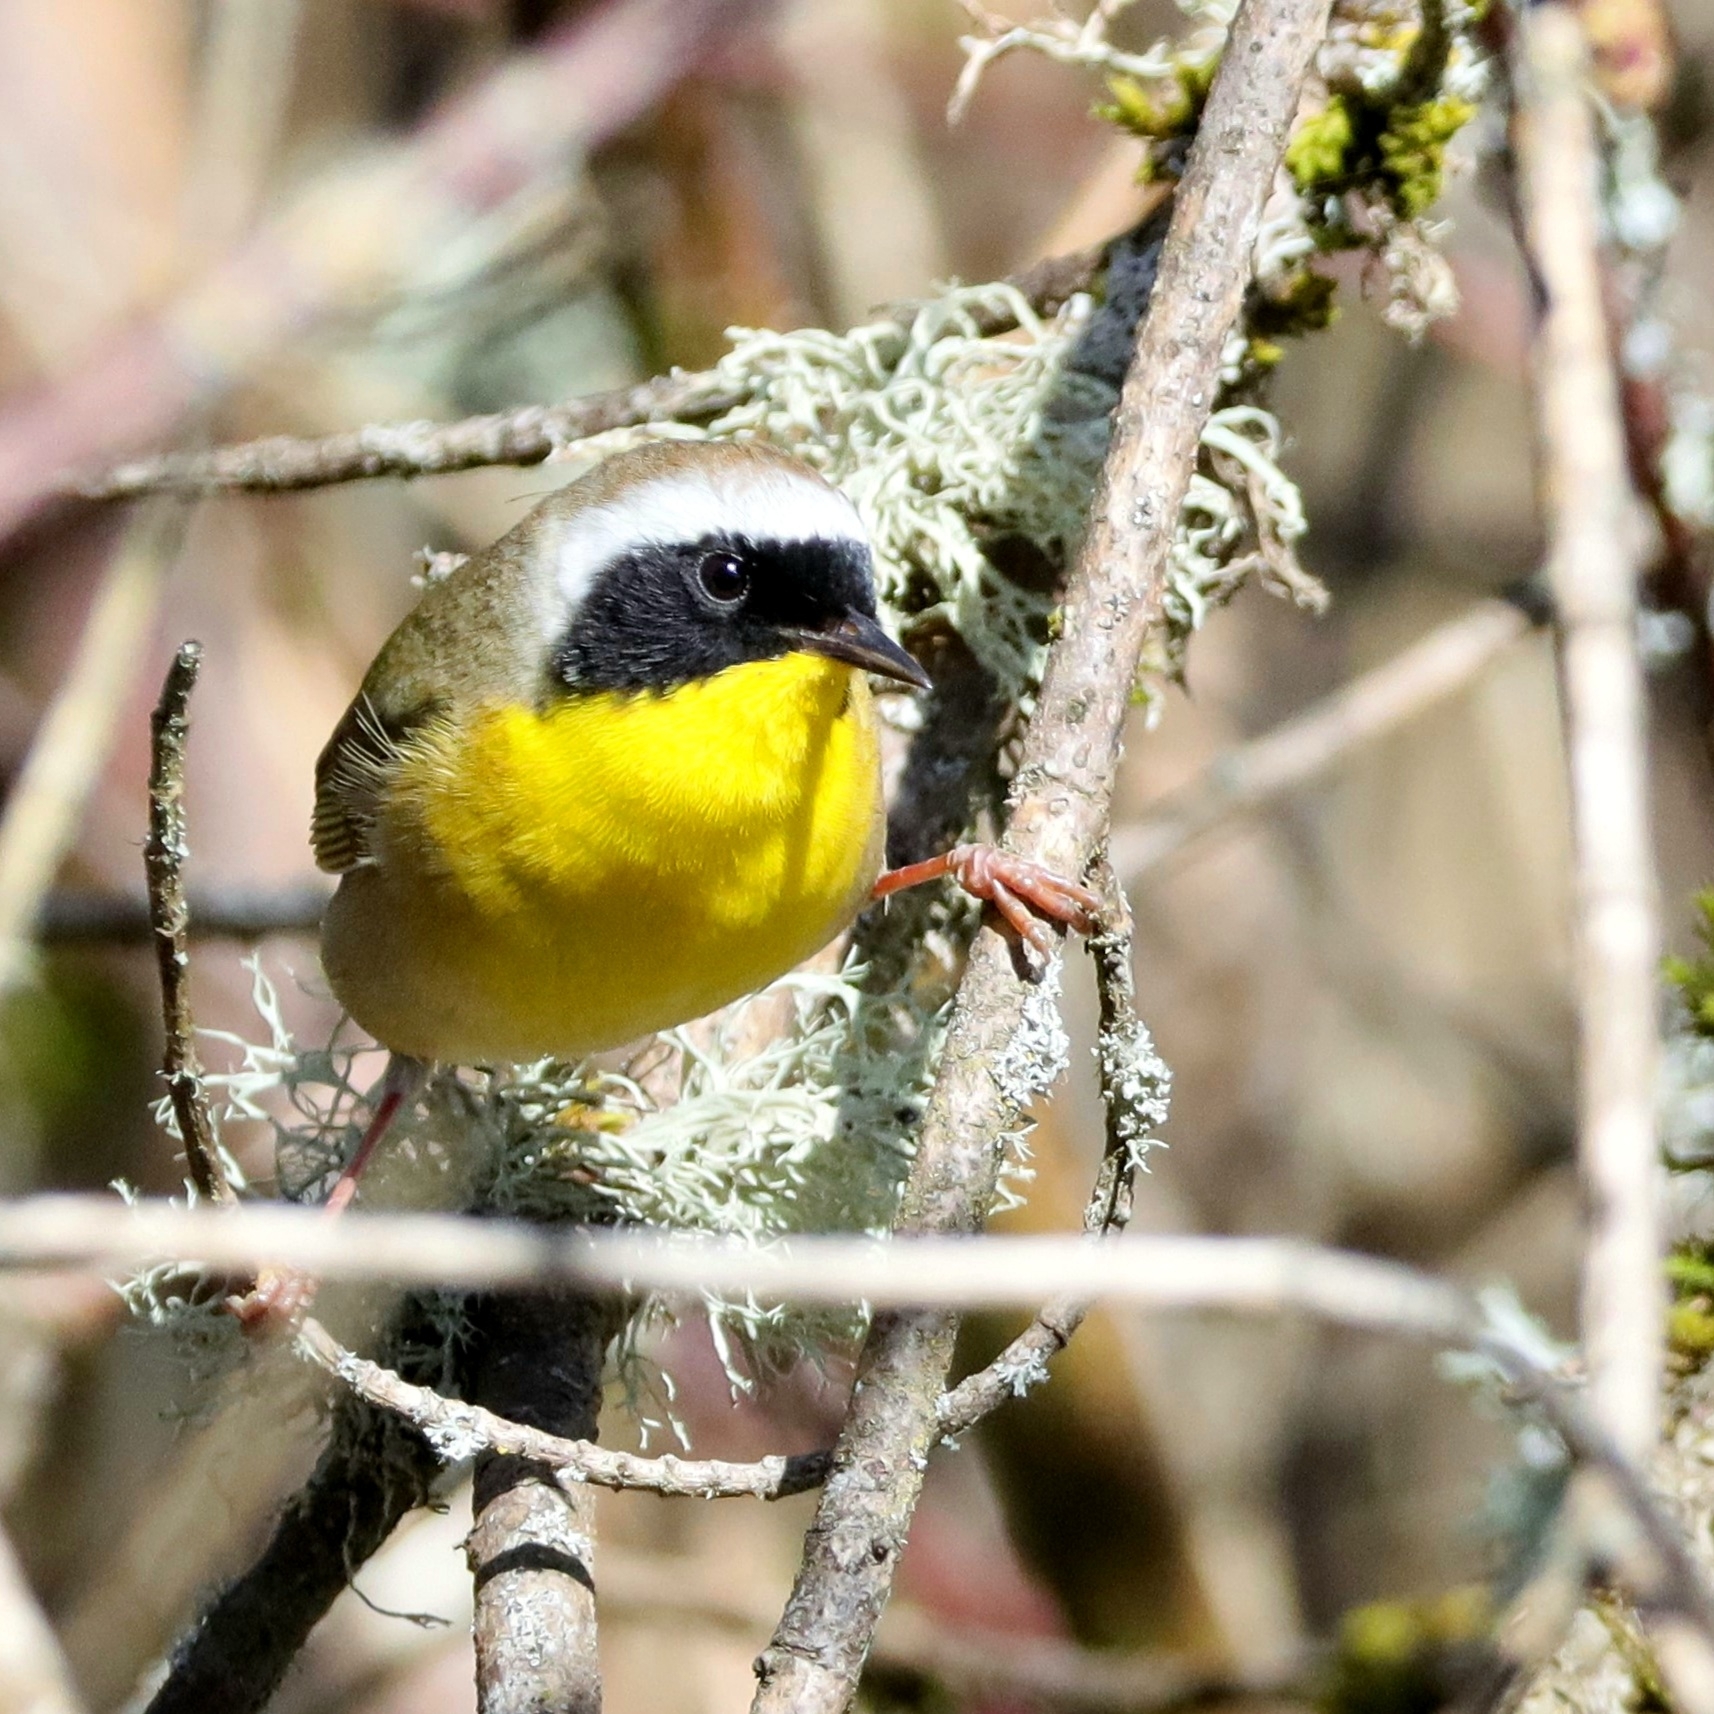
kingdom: Animalia
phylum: Chordata
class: Aves
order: Passeriformes
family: Parulidae
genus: Geothlypis
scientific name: Geothlypis trichas
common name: Common yellowthroat
